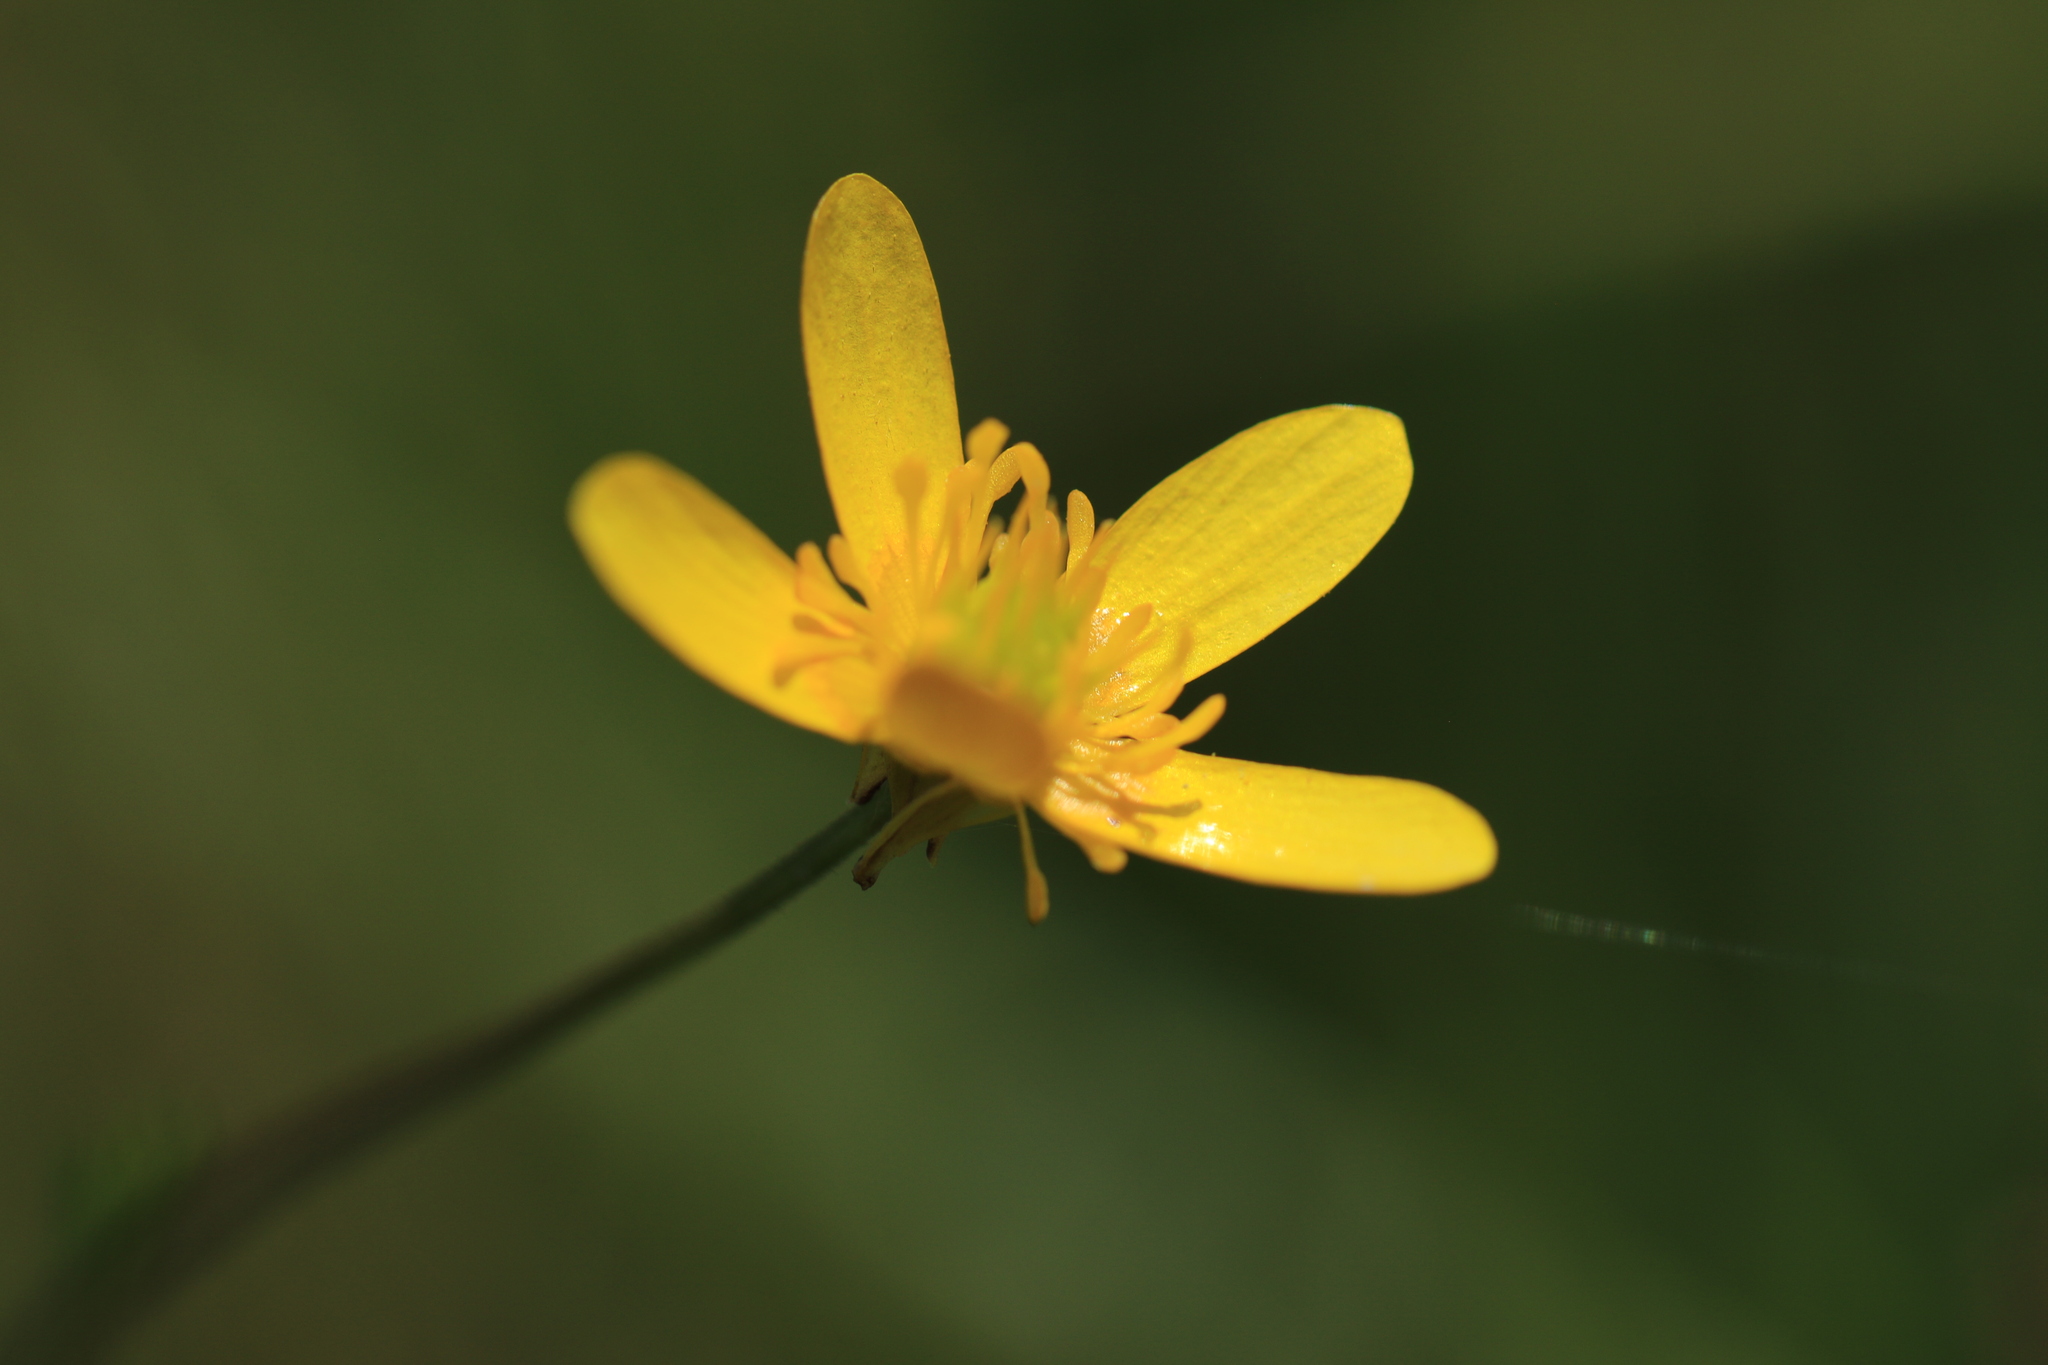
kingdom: Plantae
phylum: Tracheophyta
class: Magnoliopsida
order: Ranunculales
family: Ranunculaceae
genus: Ranunculus
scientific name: Ranunculus orthorhynchus
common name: Straight-beak buttercup
